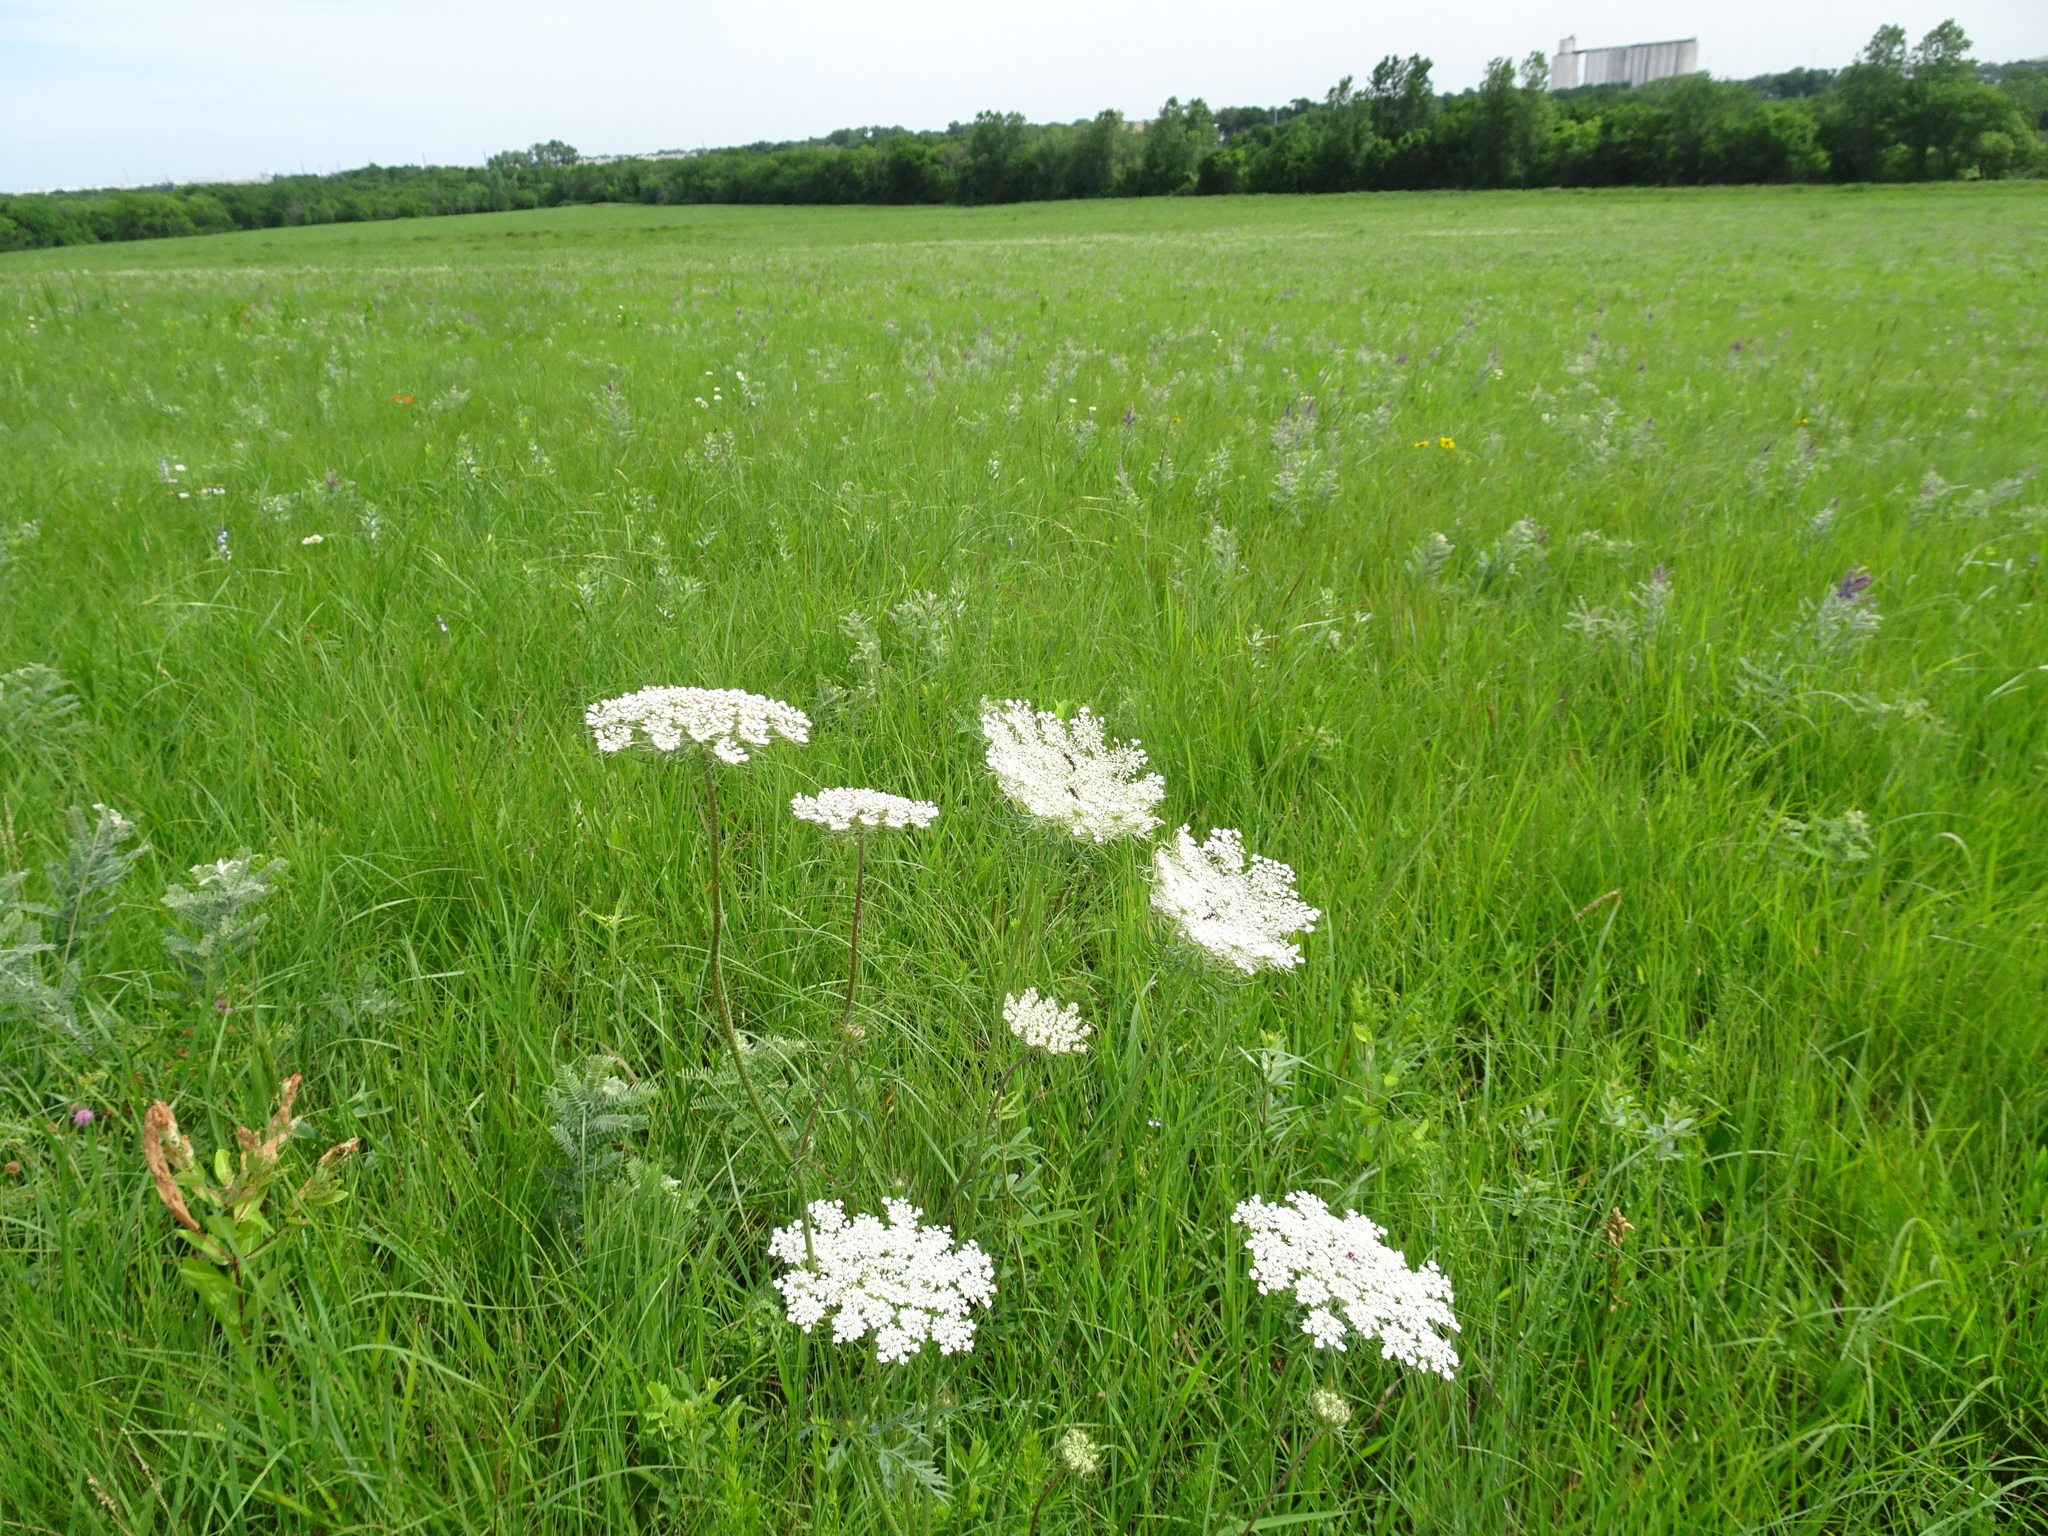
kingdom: Plantae
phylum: Tracheophyta
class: Magnoliopsida
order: Apiales
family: Apiaceae
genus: Daucus
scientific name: Daucus carota
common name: Wild carrot
